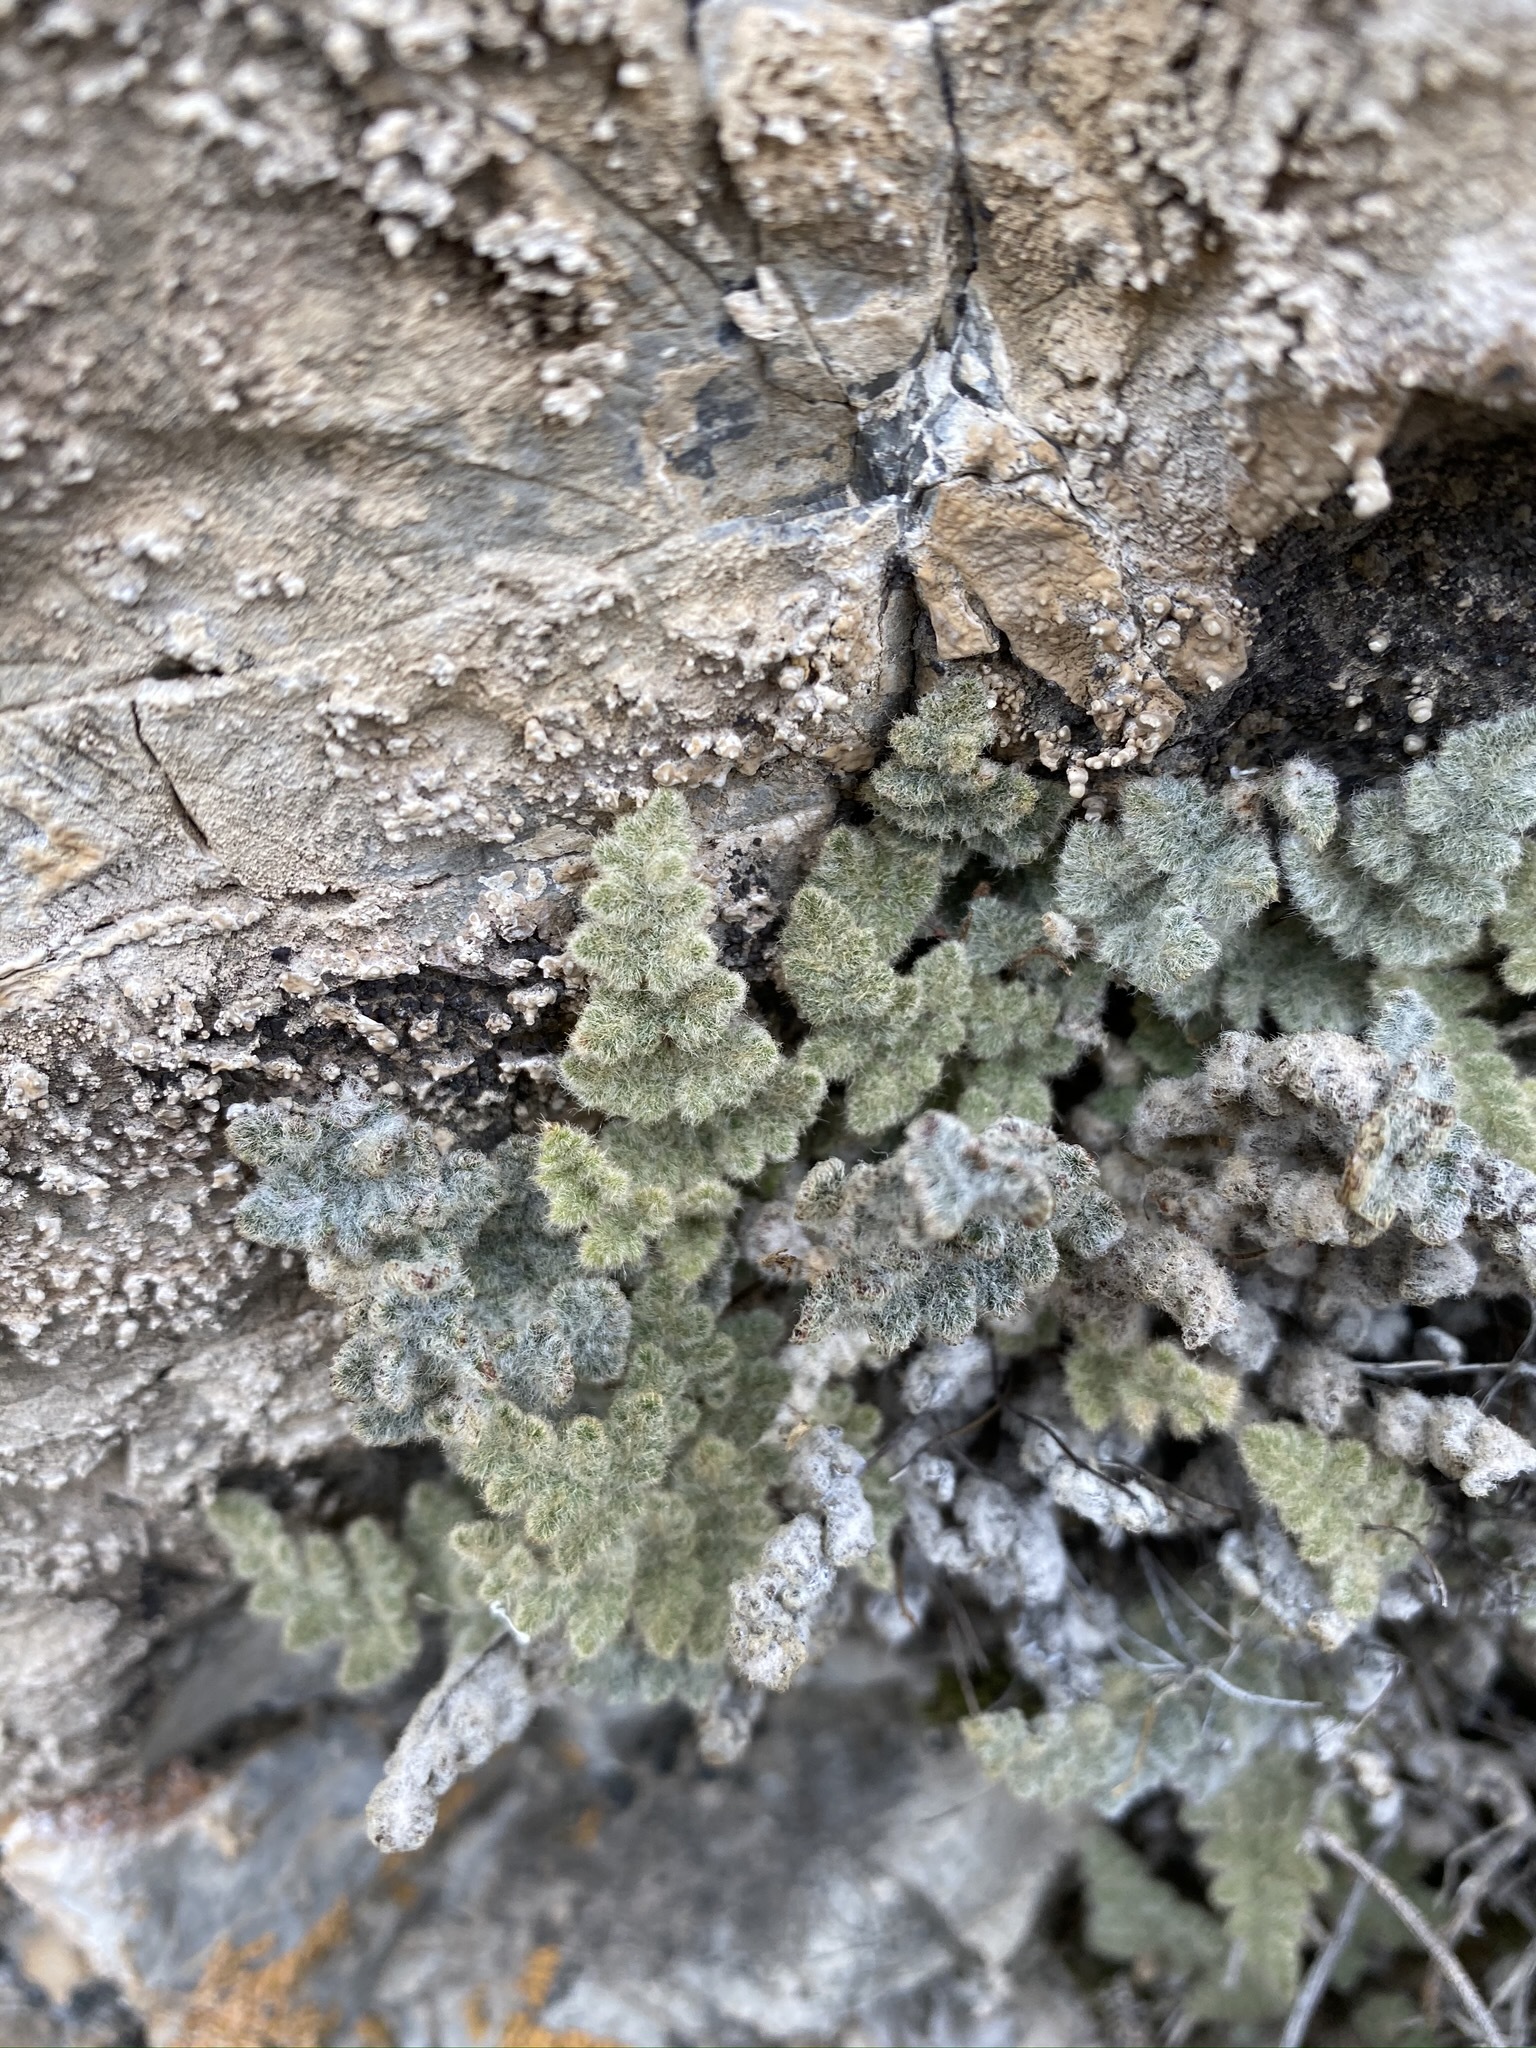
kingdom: Plantae
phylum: Tracheophyta
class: Polypodiopsida
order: Polypodiales
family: Pteridaceae
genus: Myriopteris
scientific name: Myriopteris parryi
